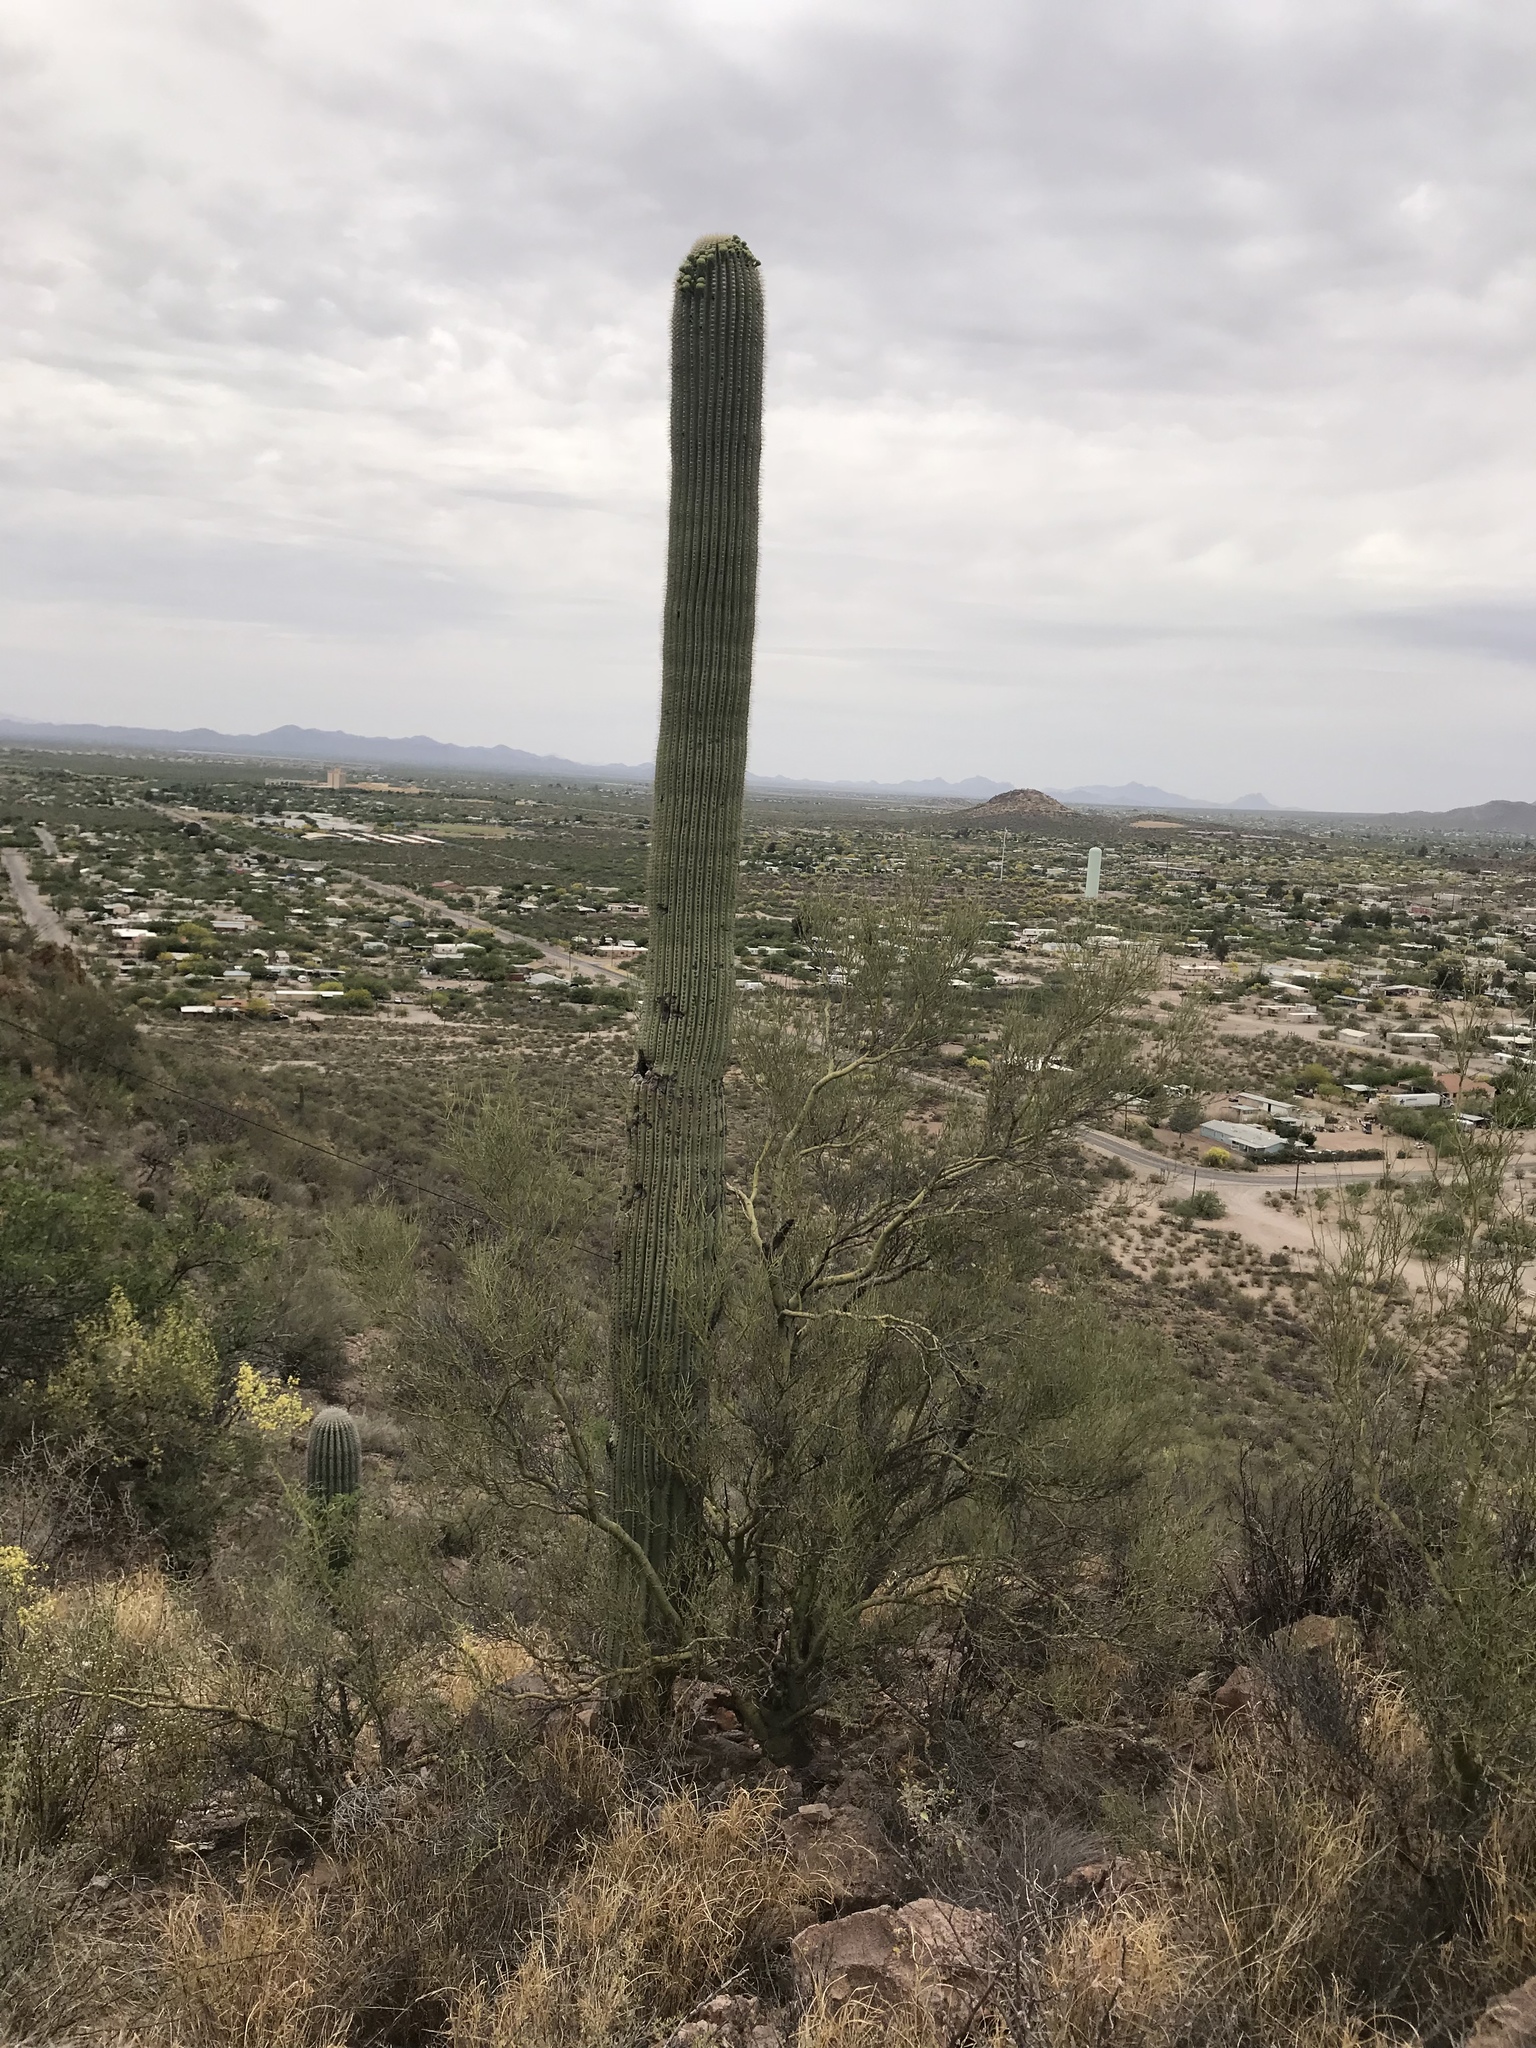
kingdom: Plantae
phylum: Tracheophyta
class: Magnoliopsida
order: Caryophyllales
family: Cactaceae
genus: Carnegiea
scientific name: Carnegiea gigantea
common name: Saguaro
